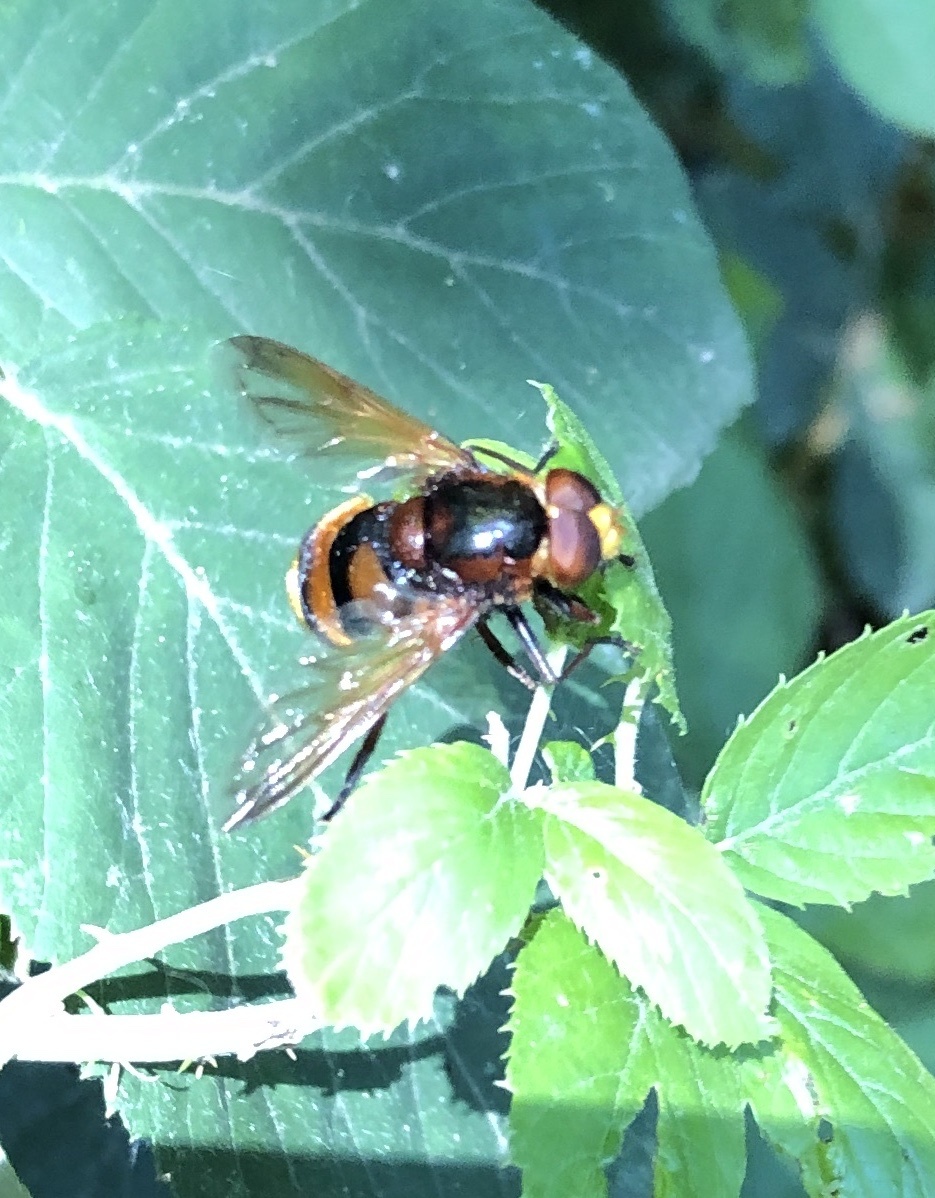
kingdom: Animalia
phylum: Arthropoda
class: Insecta
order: Diptera
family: Syrphidae
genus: Volucella
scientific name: Volucella zonaria
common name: Hornet hoverfly
